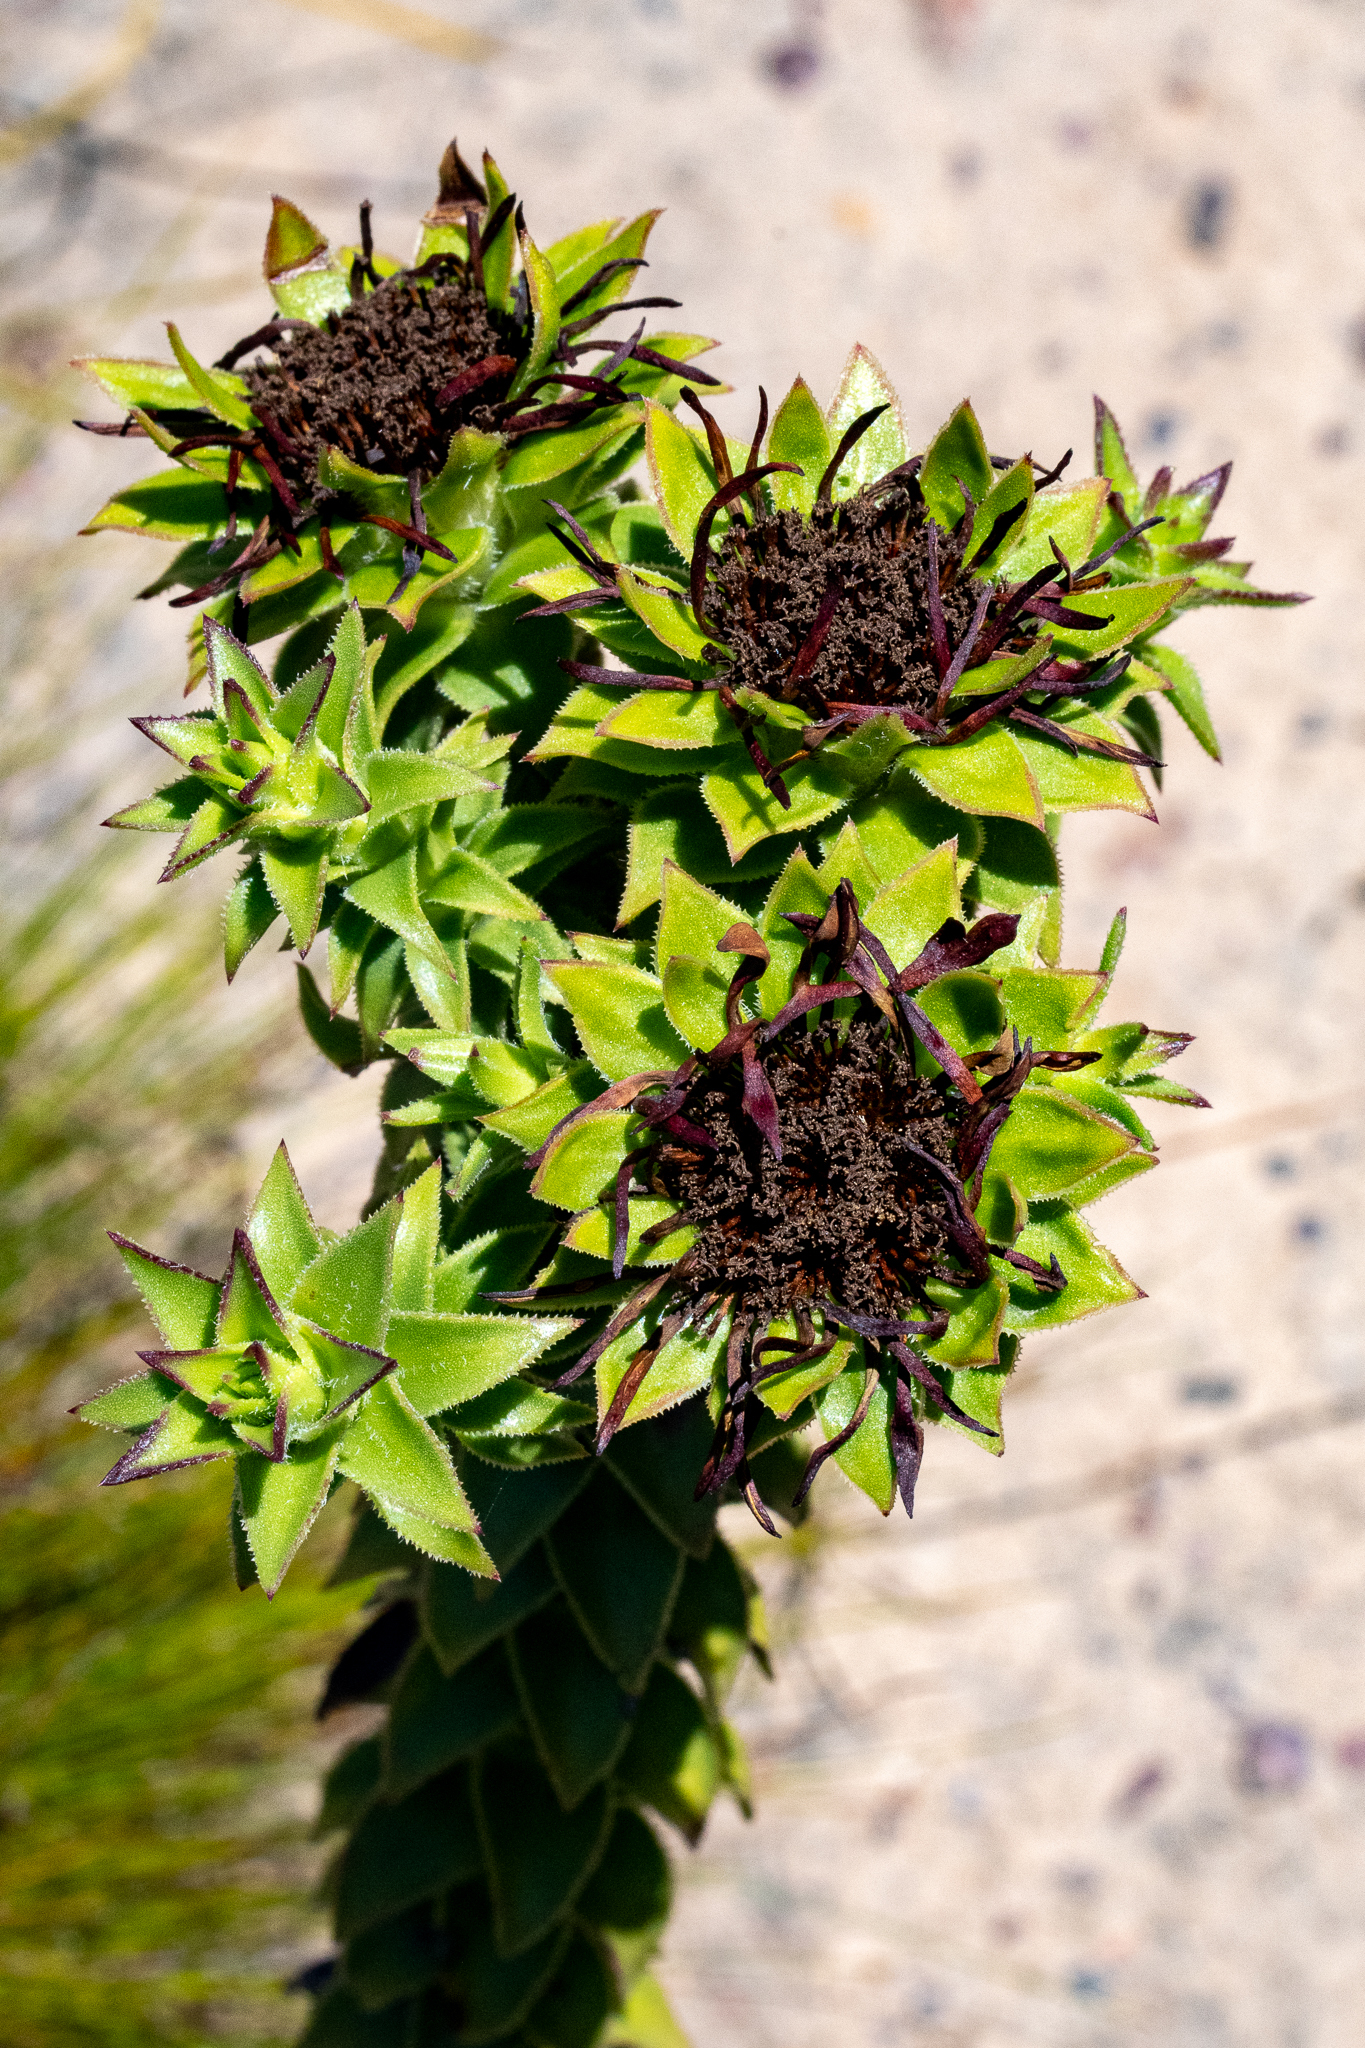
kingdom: Plantae
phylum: Tracheophyta
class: Magnoliopsida
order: Asterales
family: Asteraceae
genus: Oedera
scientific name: Oedera imbricata
